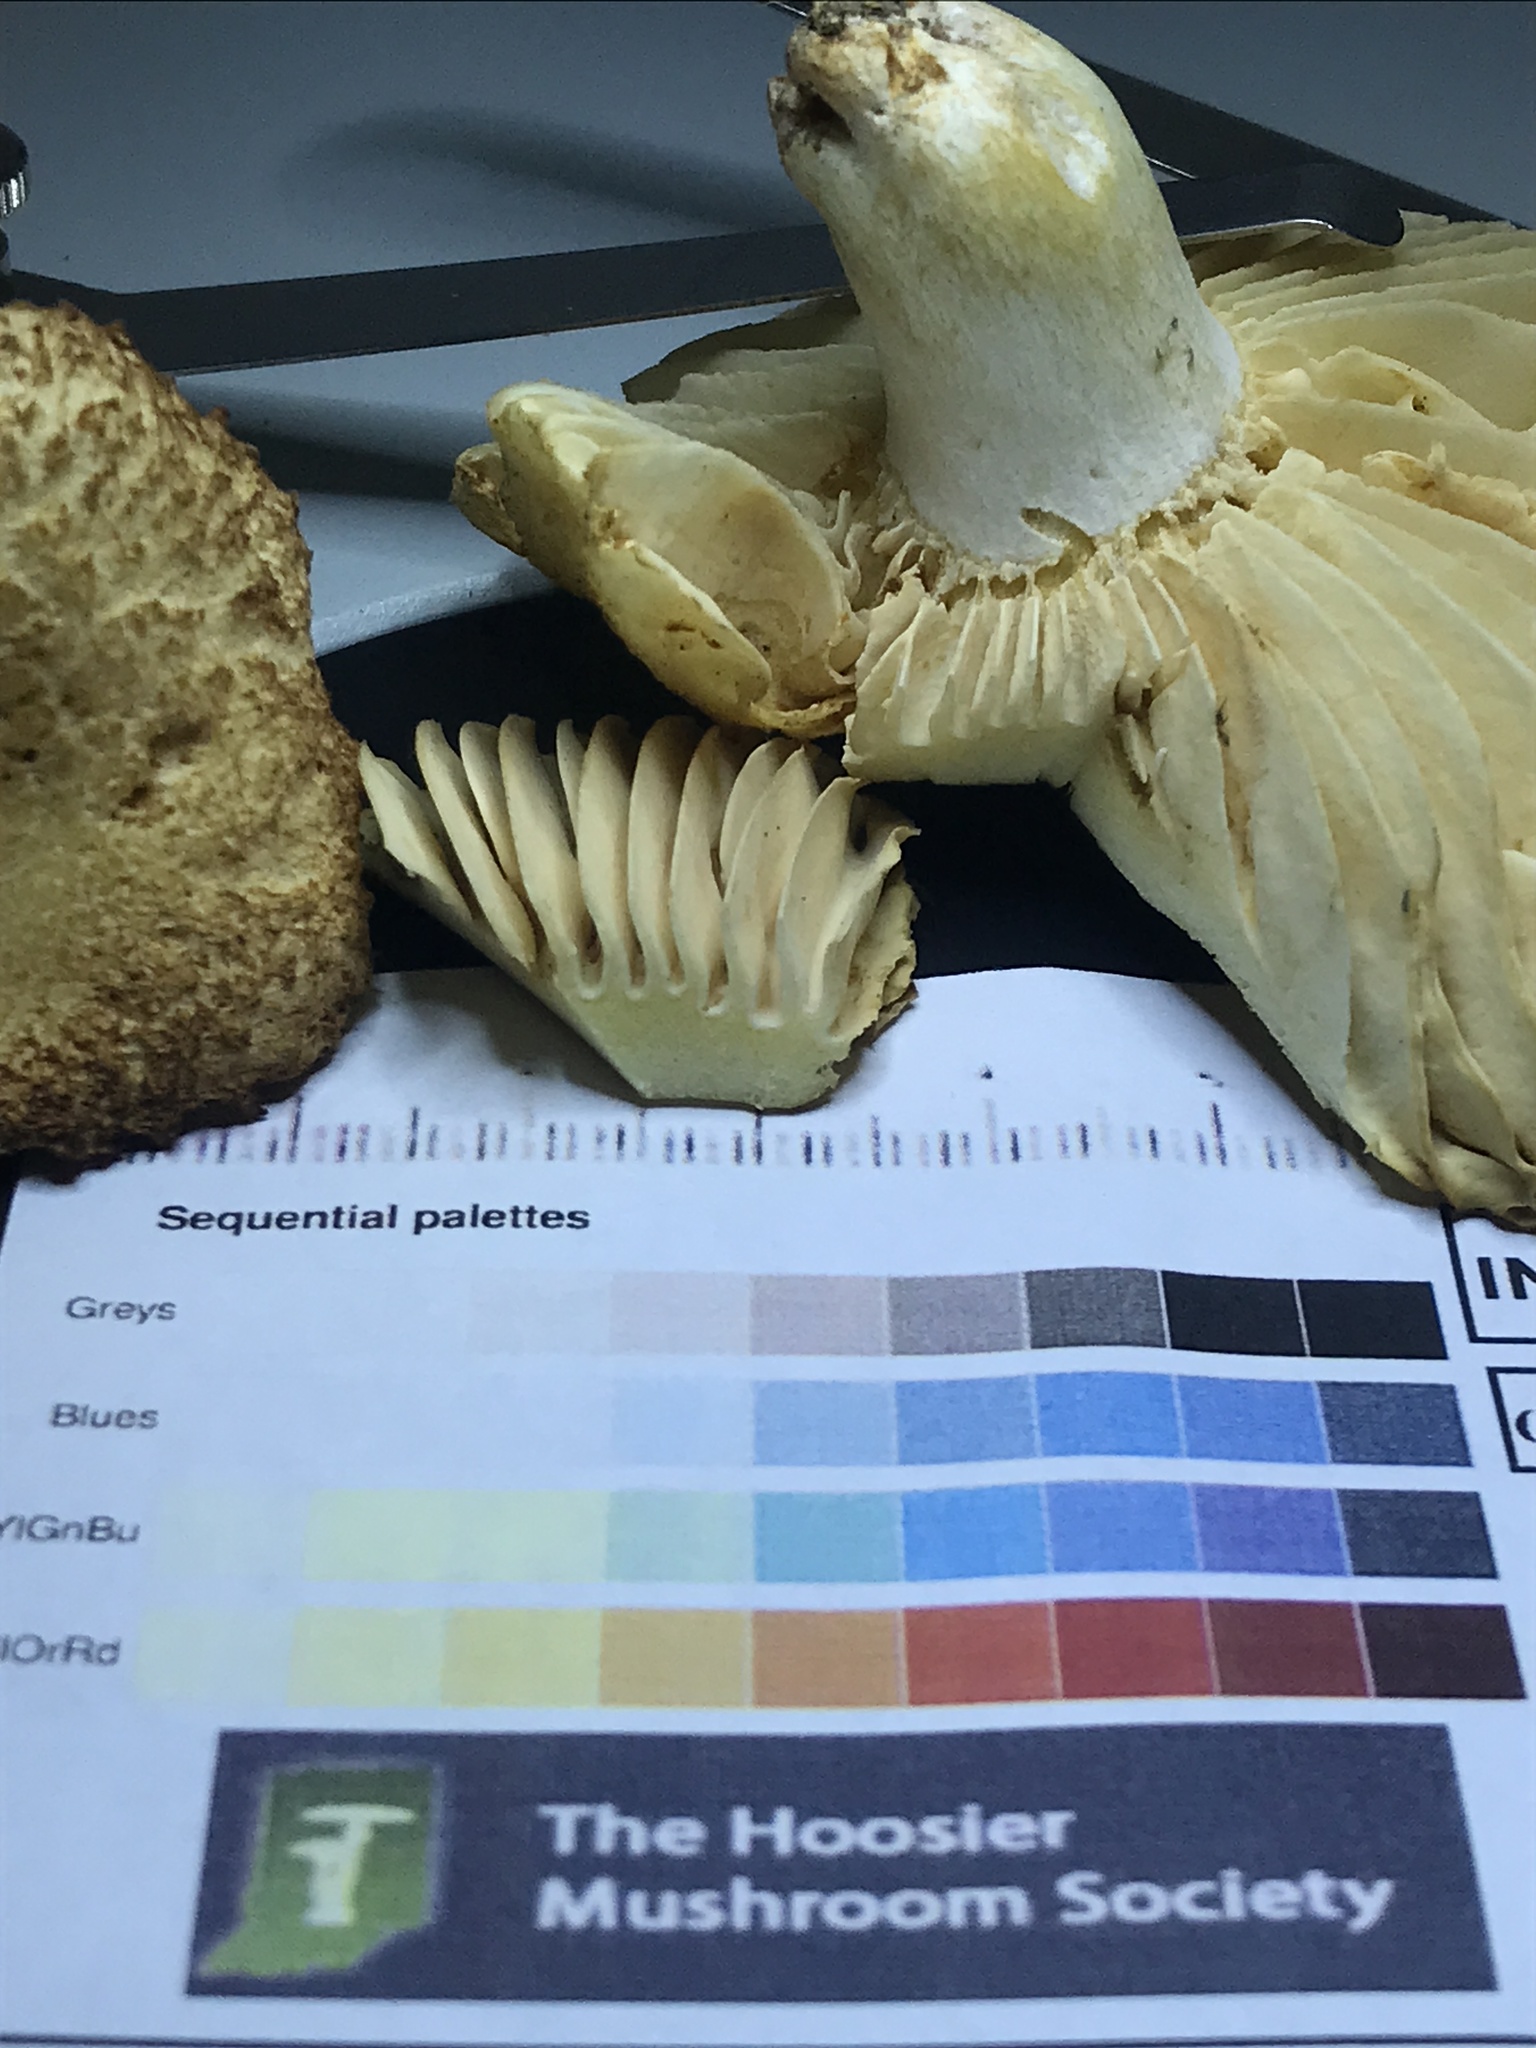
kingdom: Fungi
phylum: Basidiomycota
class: Agaricomycetes
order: Russulales
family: Russulaceae
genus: Russula
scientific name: Russula earlei
